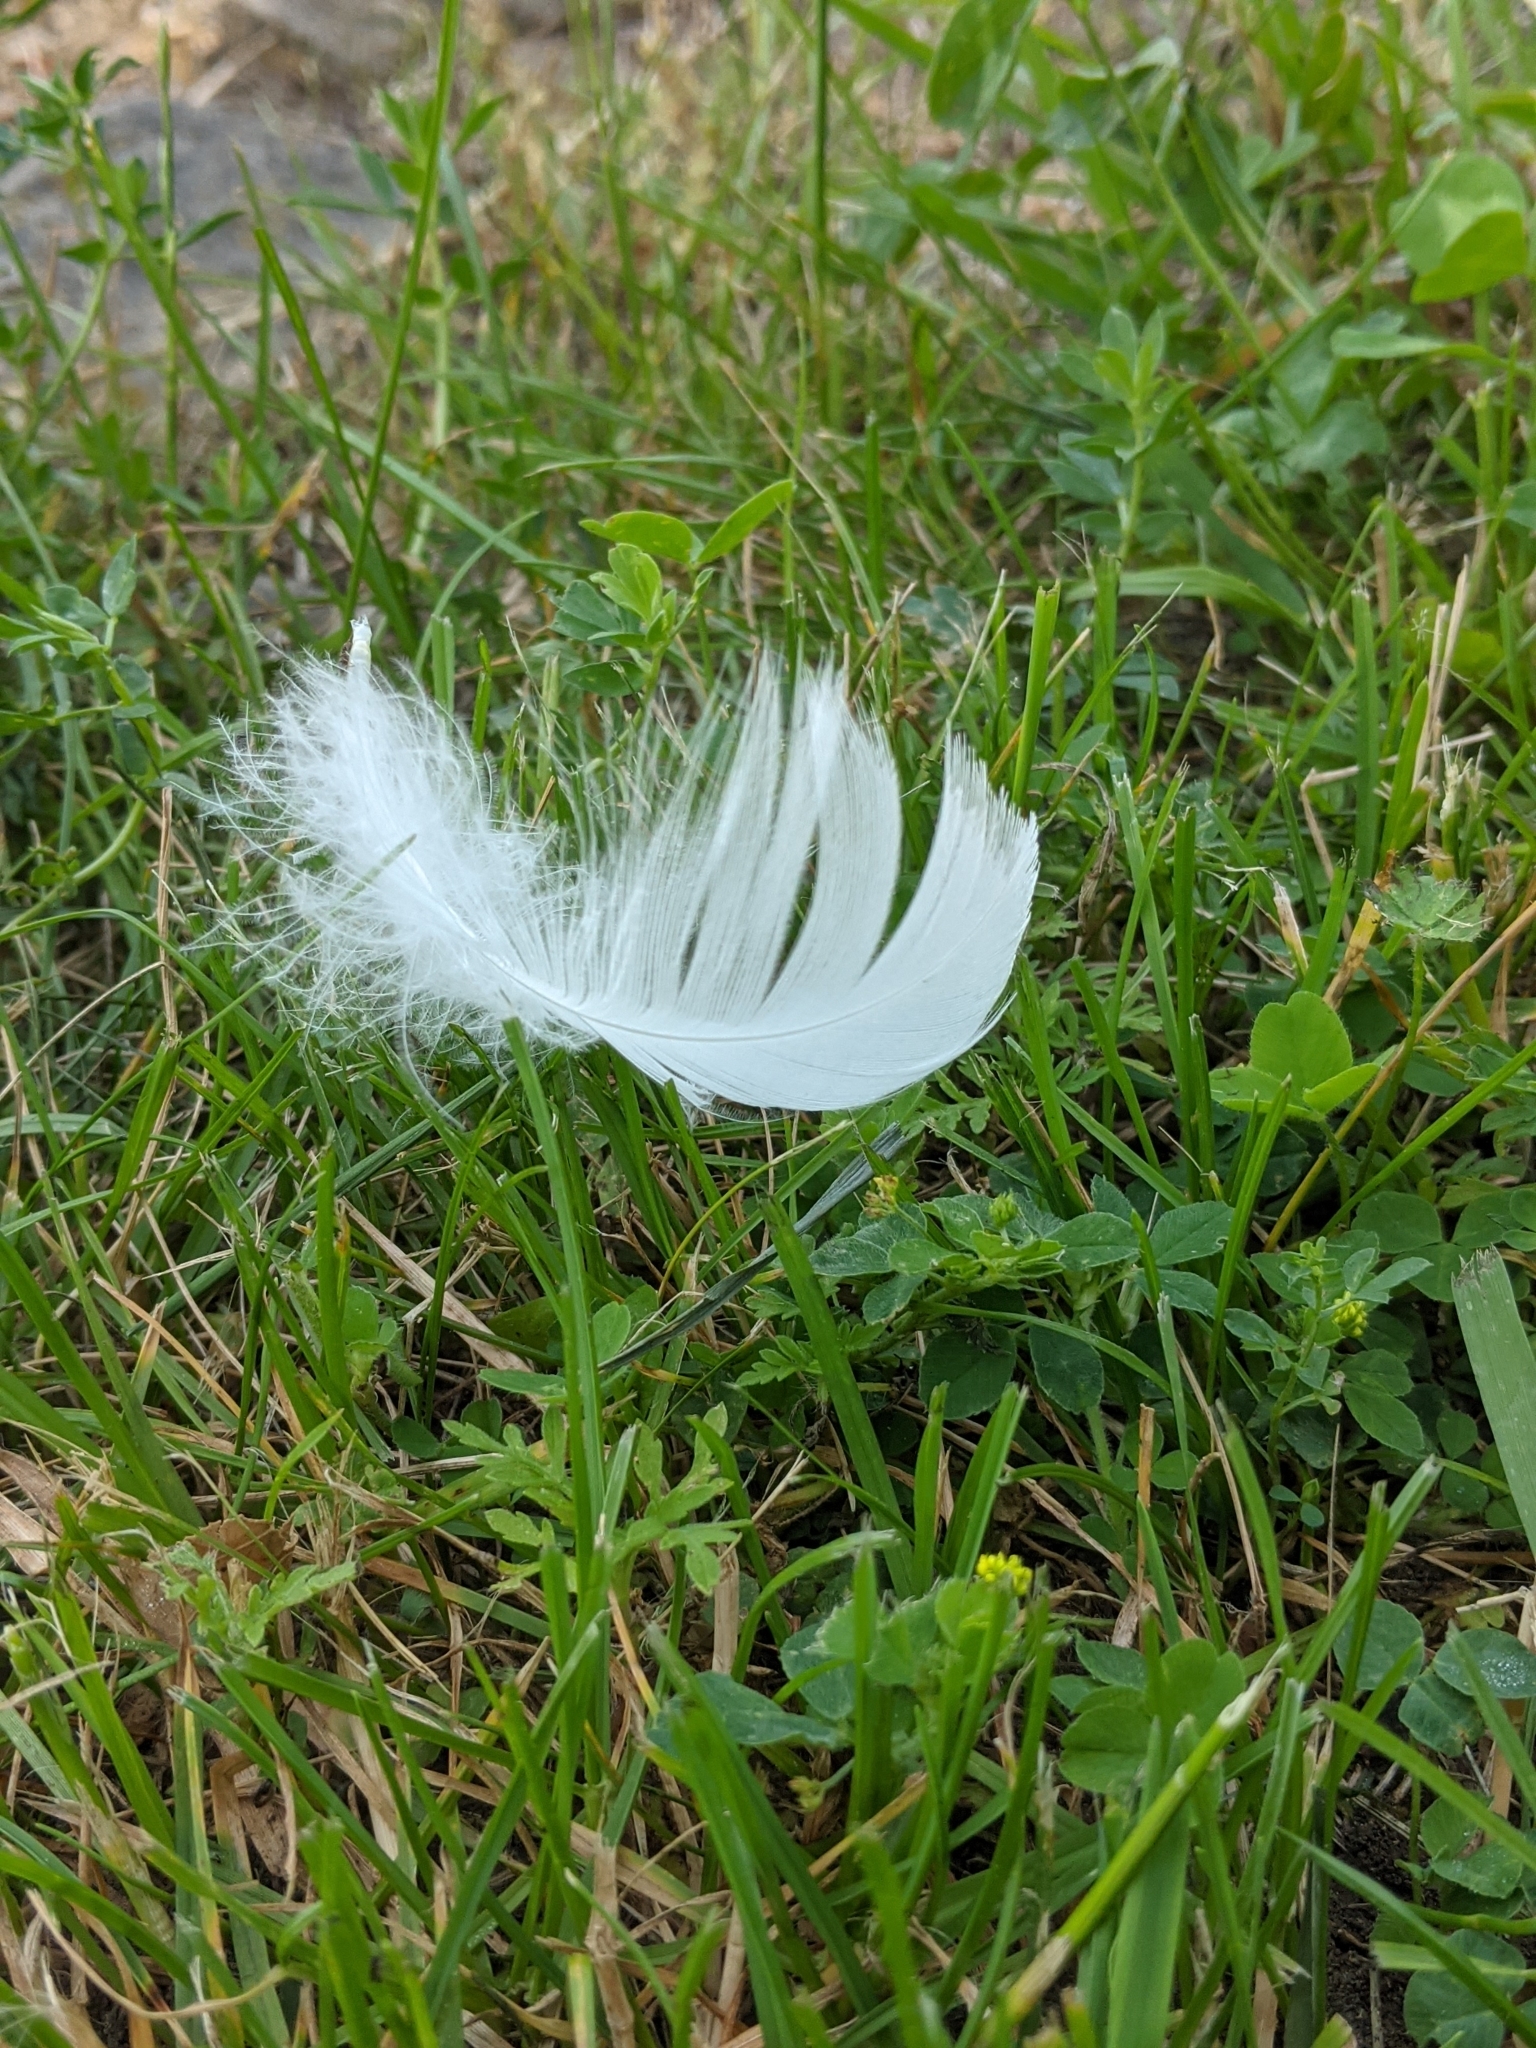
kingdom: Animalia
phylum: Chordata
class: Aves
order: Anseriformes
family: Anatidae
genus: Cygnus
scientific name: Cygnus olor
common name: Mute swan
